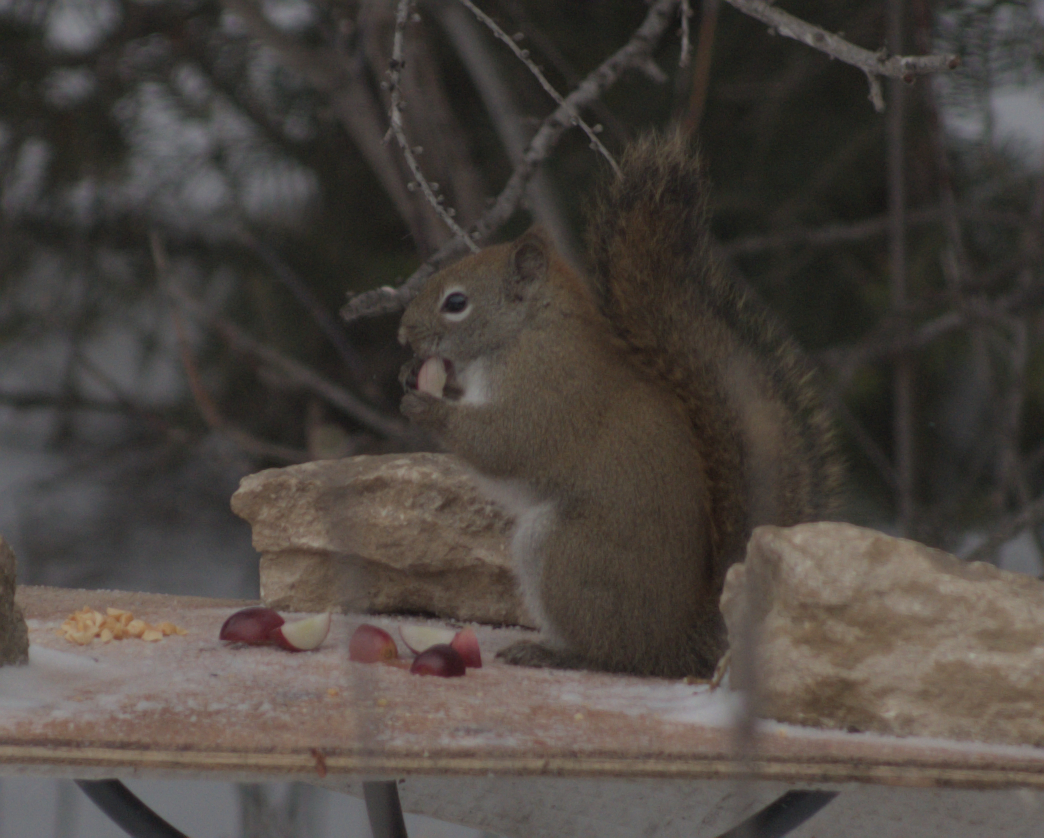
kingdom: Animalia
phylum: Chordata
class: Mammalia
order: Rodentia
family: Sciuridae
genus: Tamiasciurus
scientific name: Tamiasciurus hudsonicus
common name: Red squirrel
